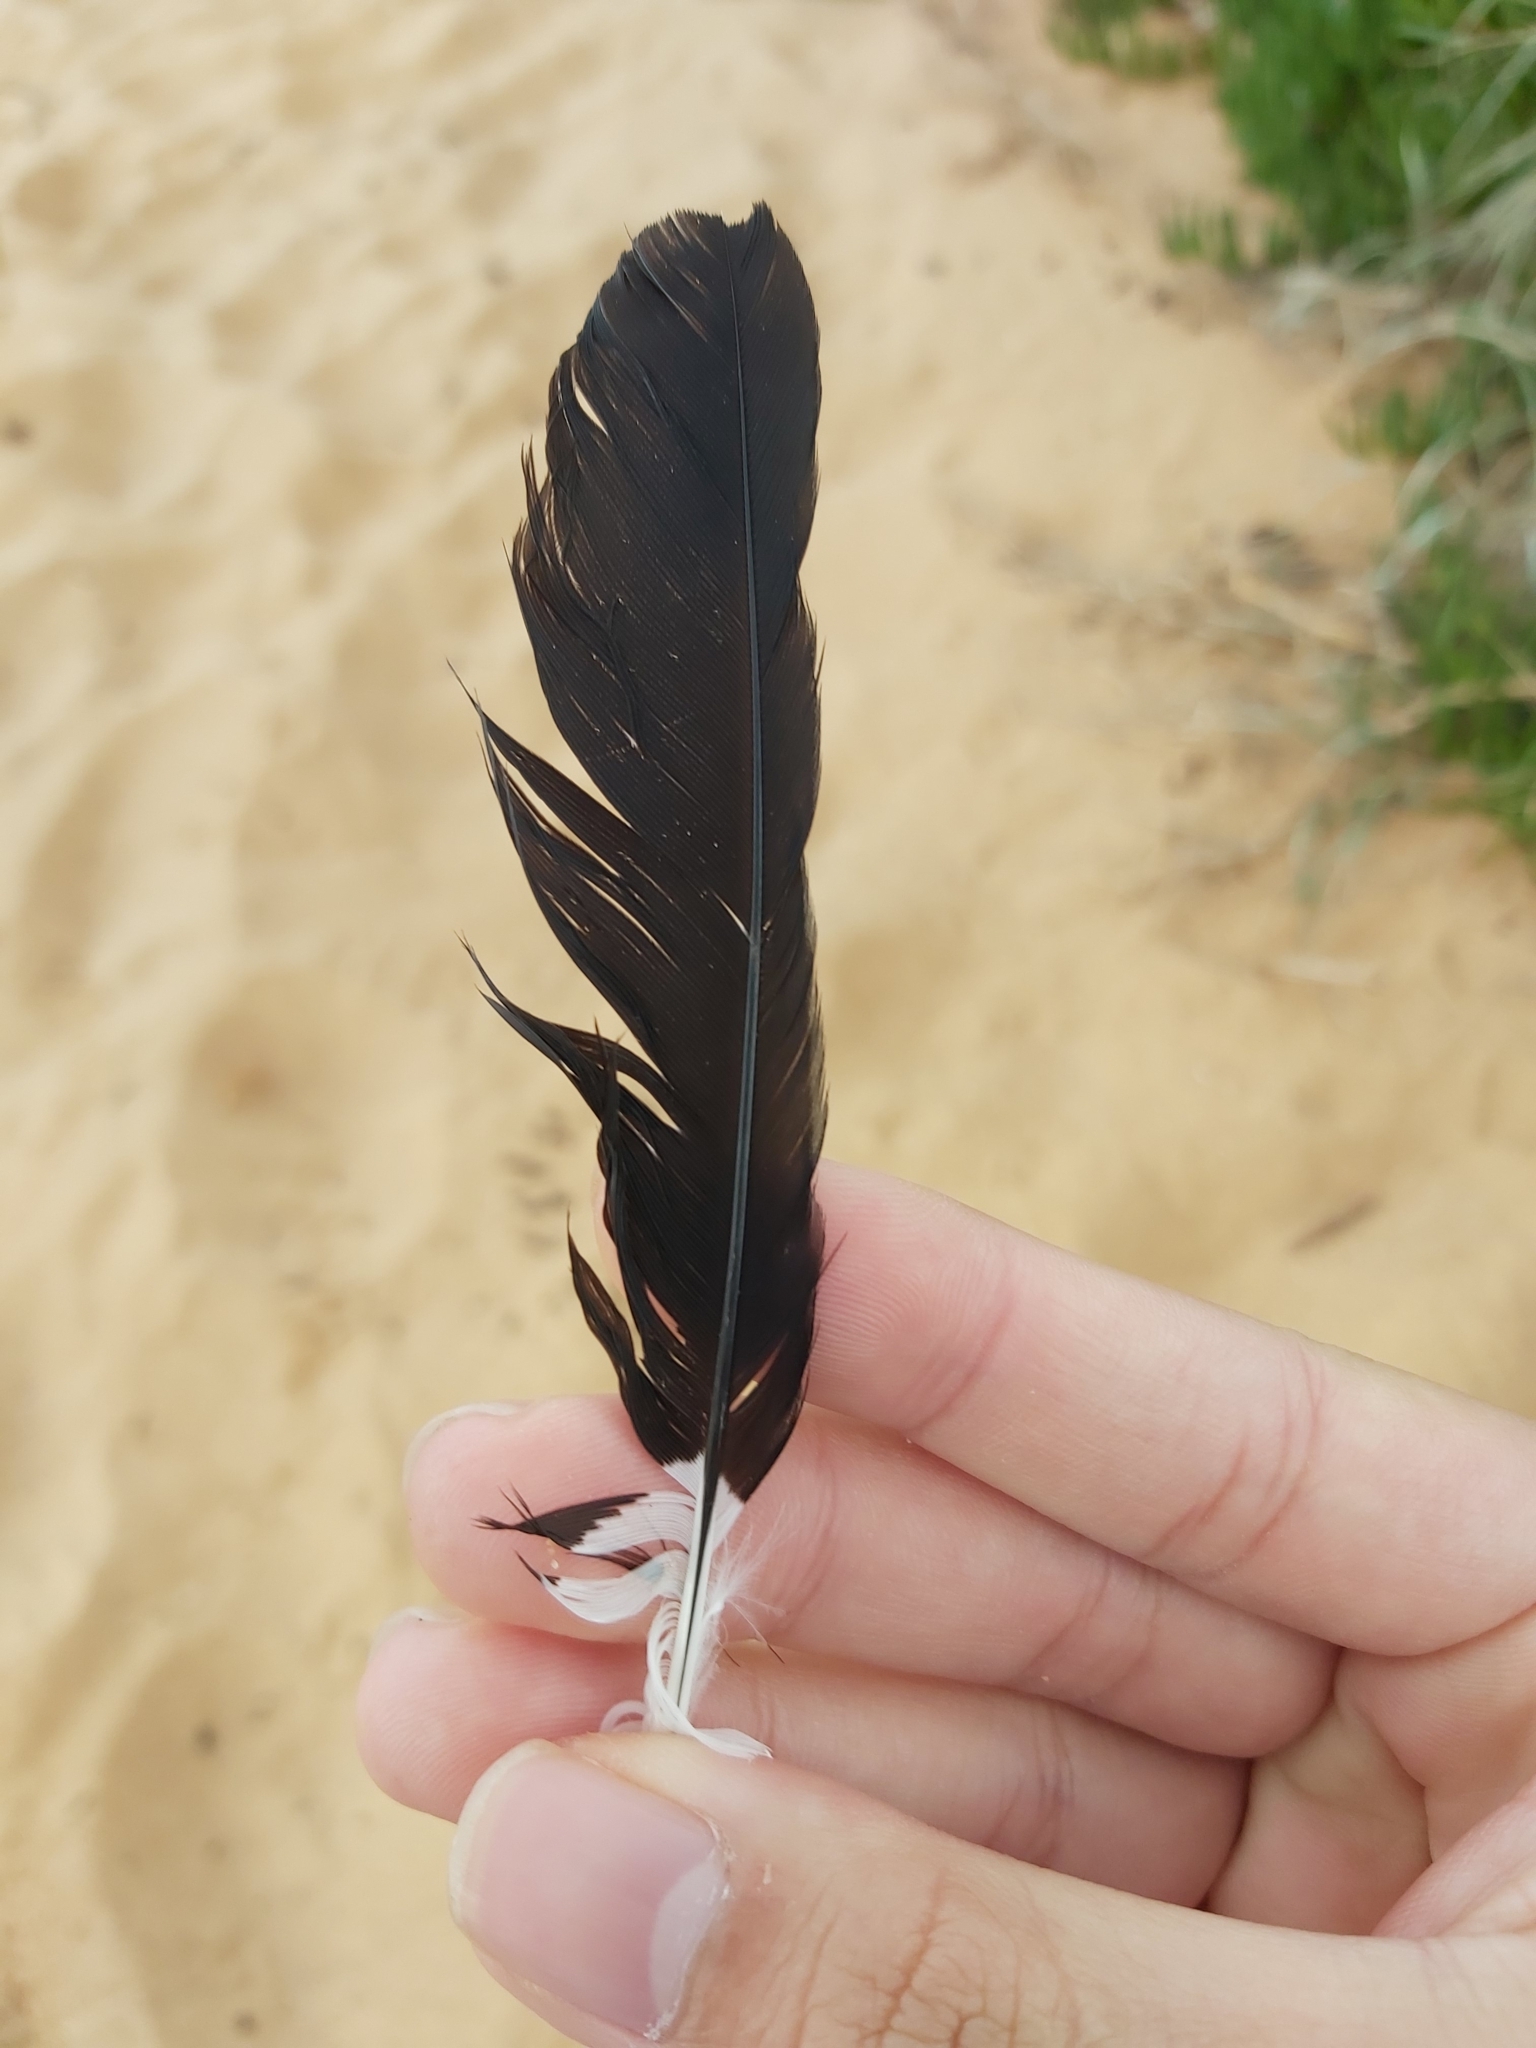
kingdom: Animalia
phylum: Chordata
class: Aves
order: Passeriformes
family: Monarchidae
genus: Grallina
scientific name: Grallina cyanoleuca
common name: Magpie-lark
